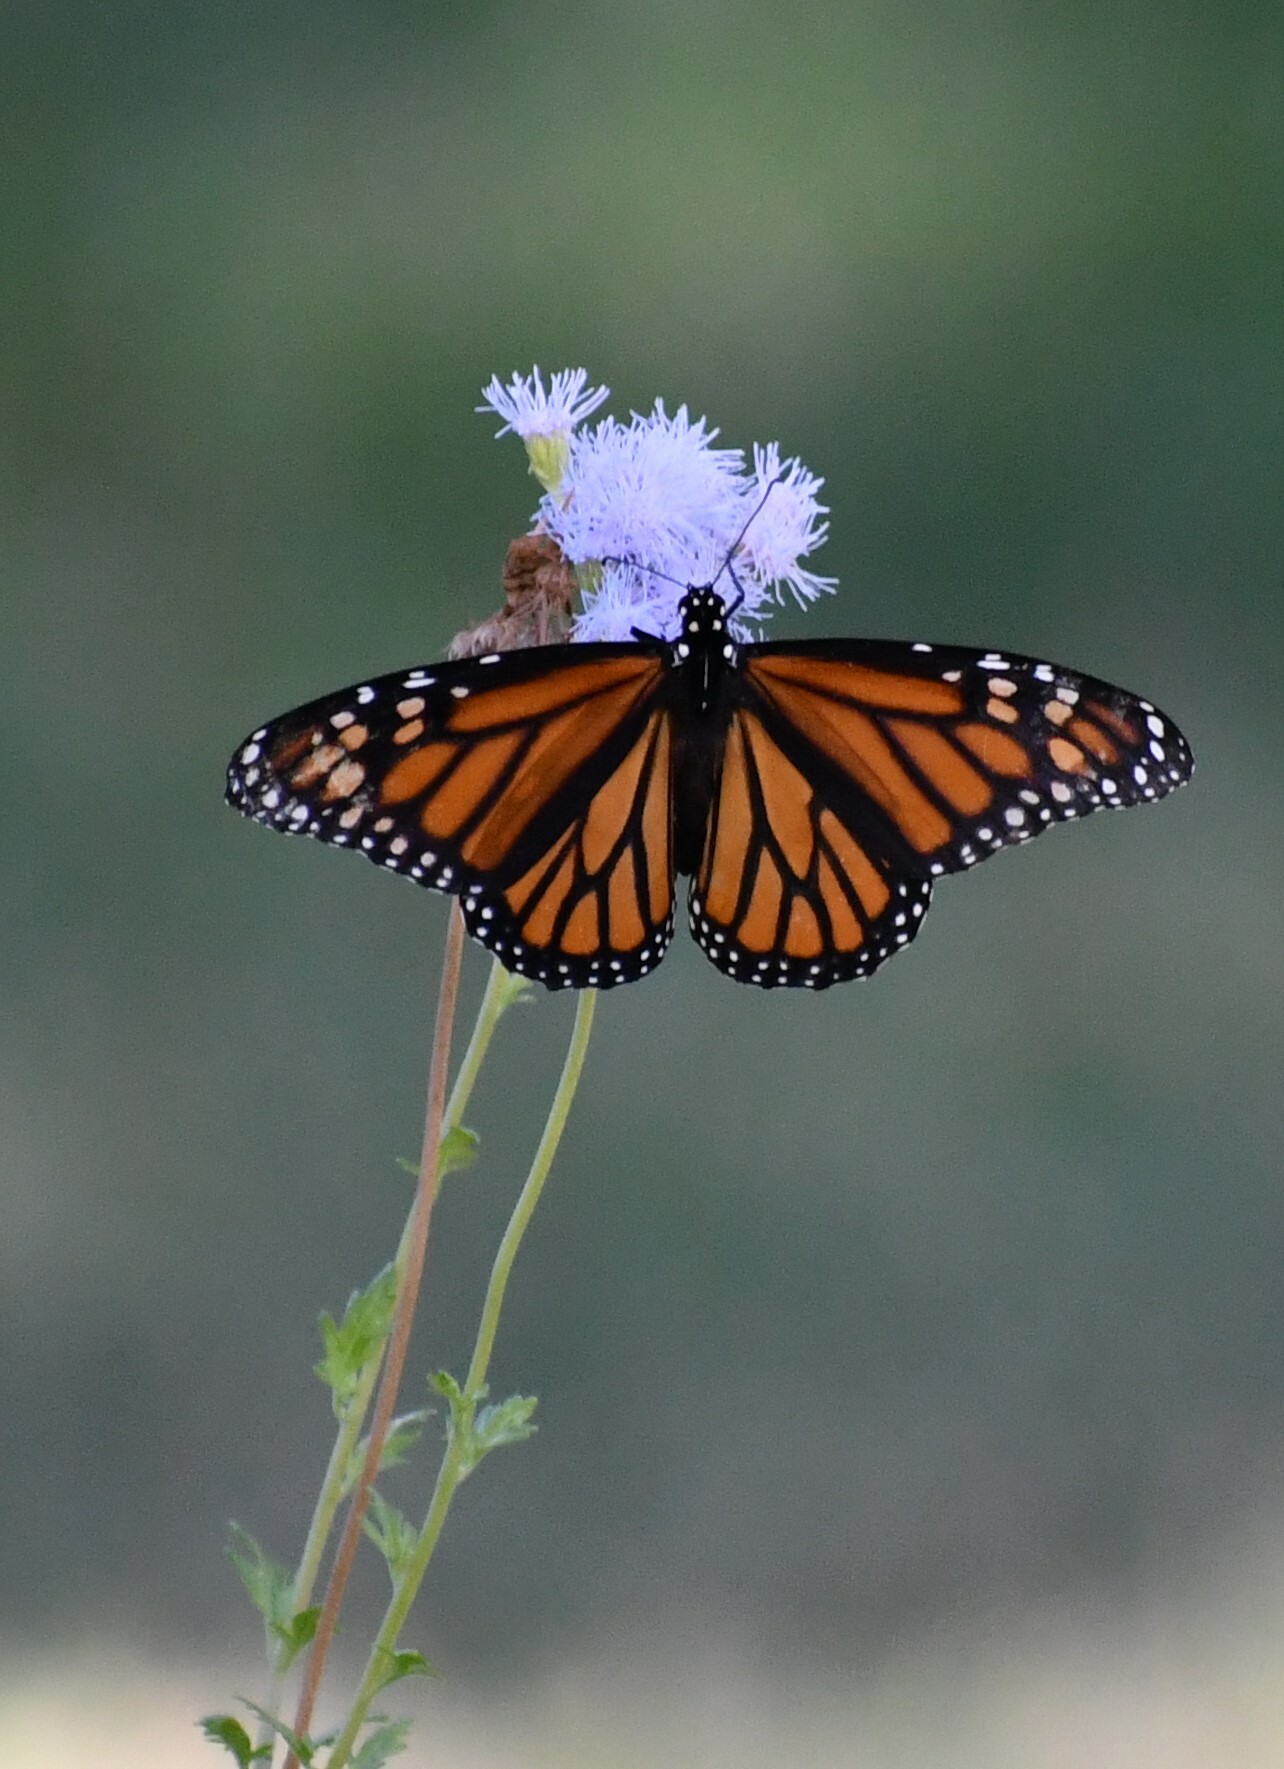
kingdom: Animalia
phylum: Arthropoda
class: Insecta
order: Lepidoptera
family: Nymphalidae
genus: Danaus
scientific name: Danaus plexippus
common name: Monarch
